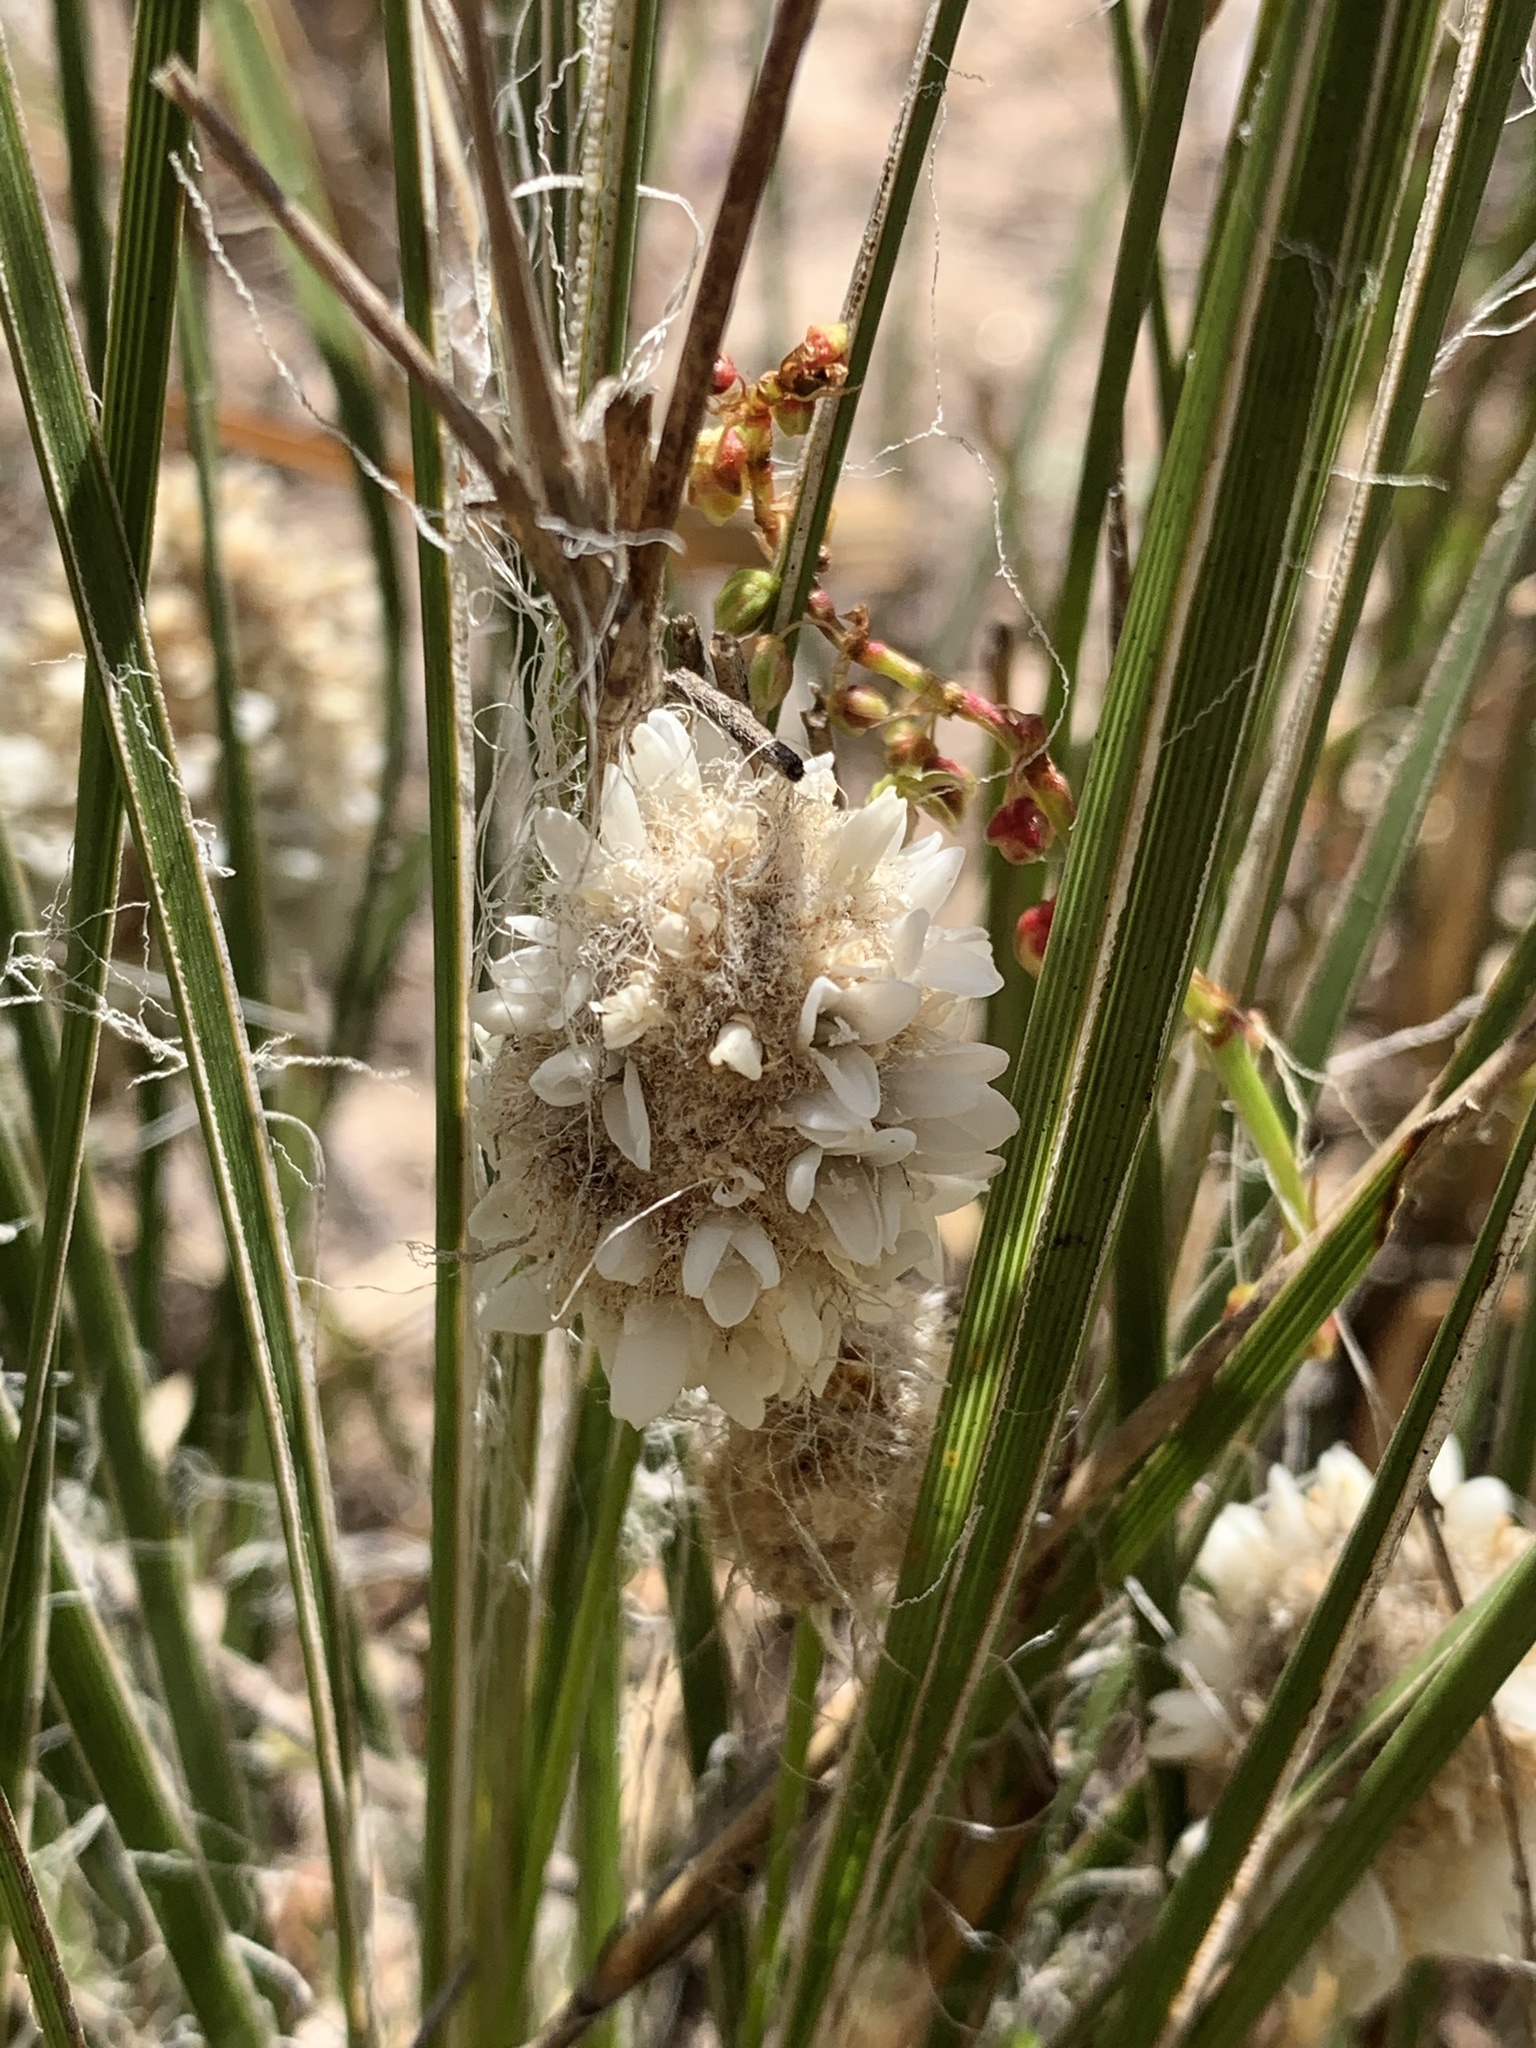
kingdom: Plantae
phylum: Tracheophyta
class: Liliopsida
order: Asparagales
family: Asparagaceae
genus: Lomandra
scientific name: Lomandra leucocephala
